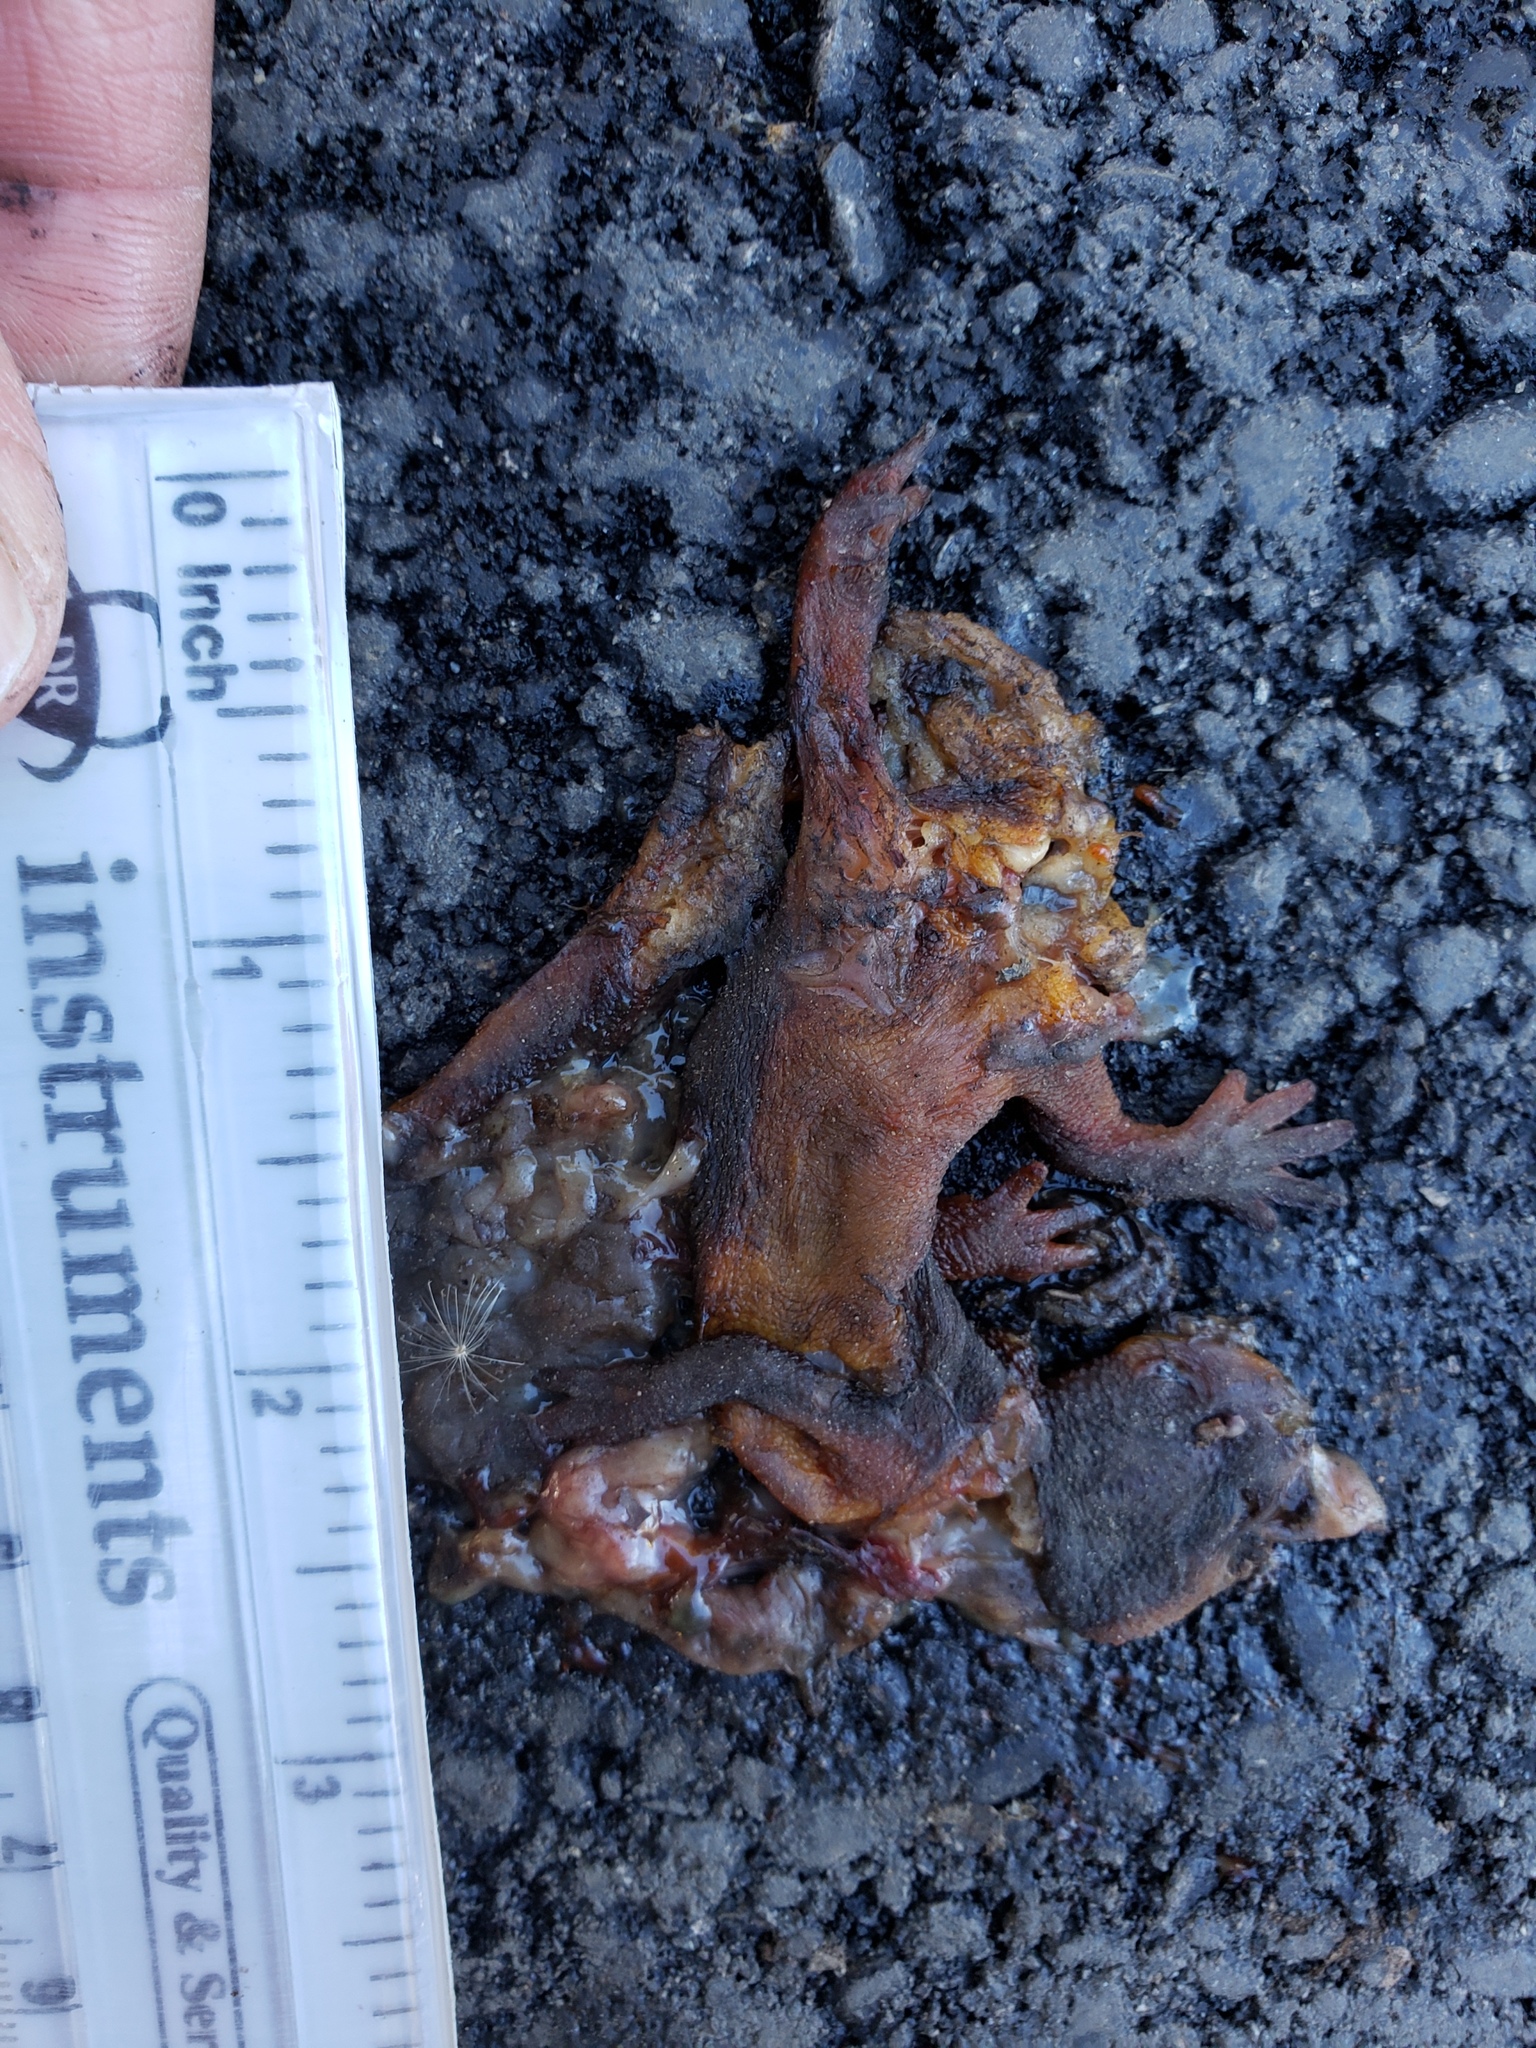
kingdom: Animalia
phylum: Chordata
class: Amphibia
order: Caudata
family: Salamandridae
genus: Taricha
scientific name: Taricha
